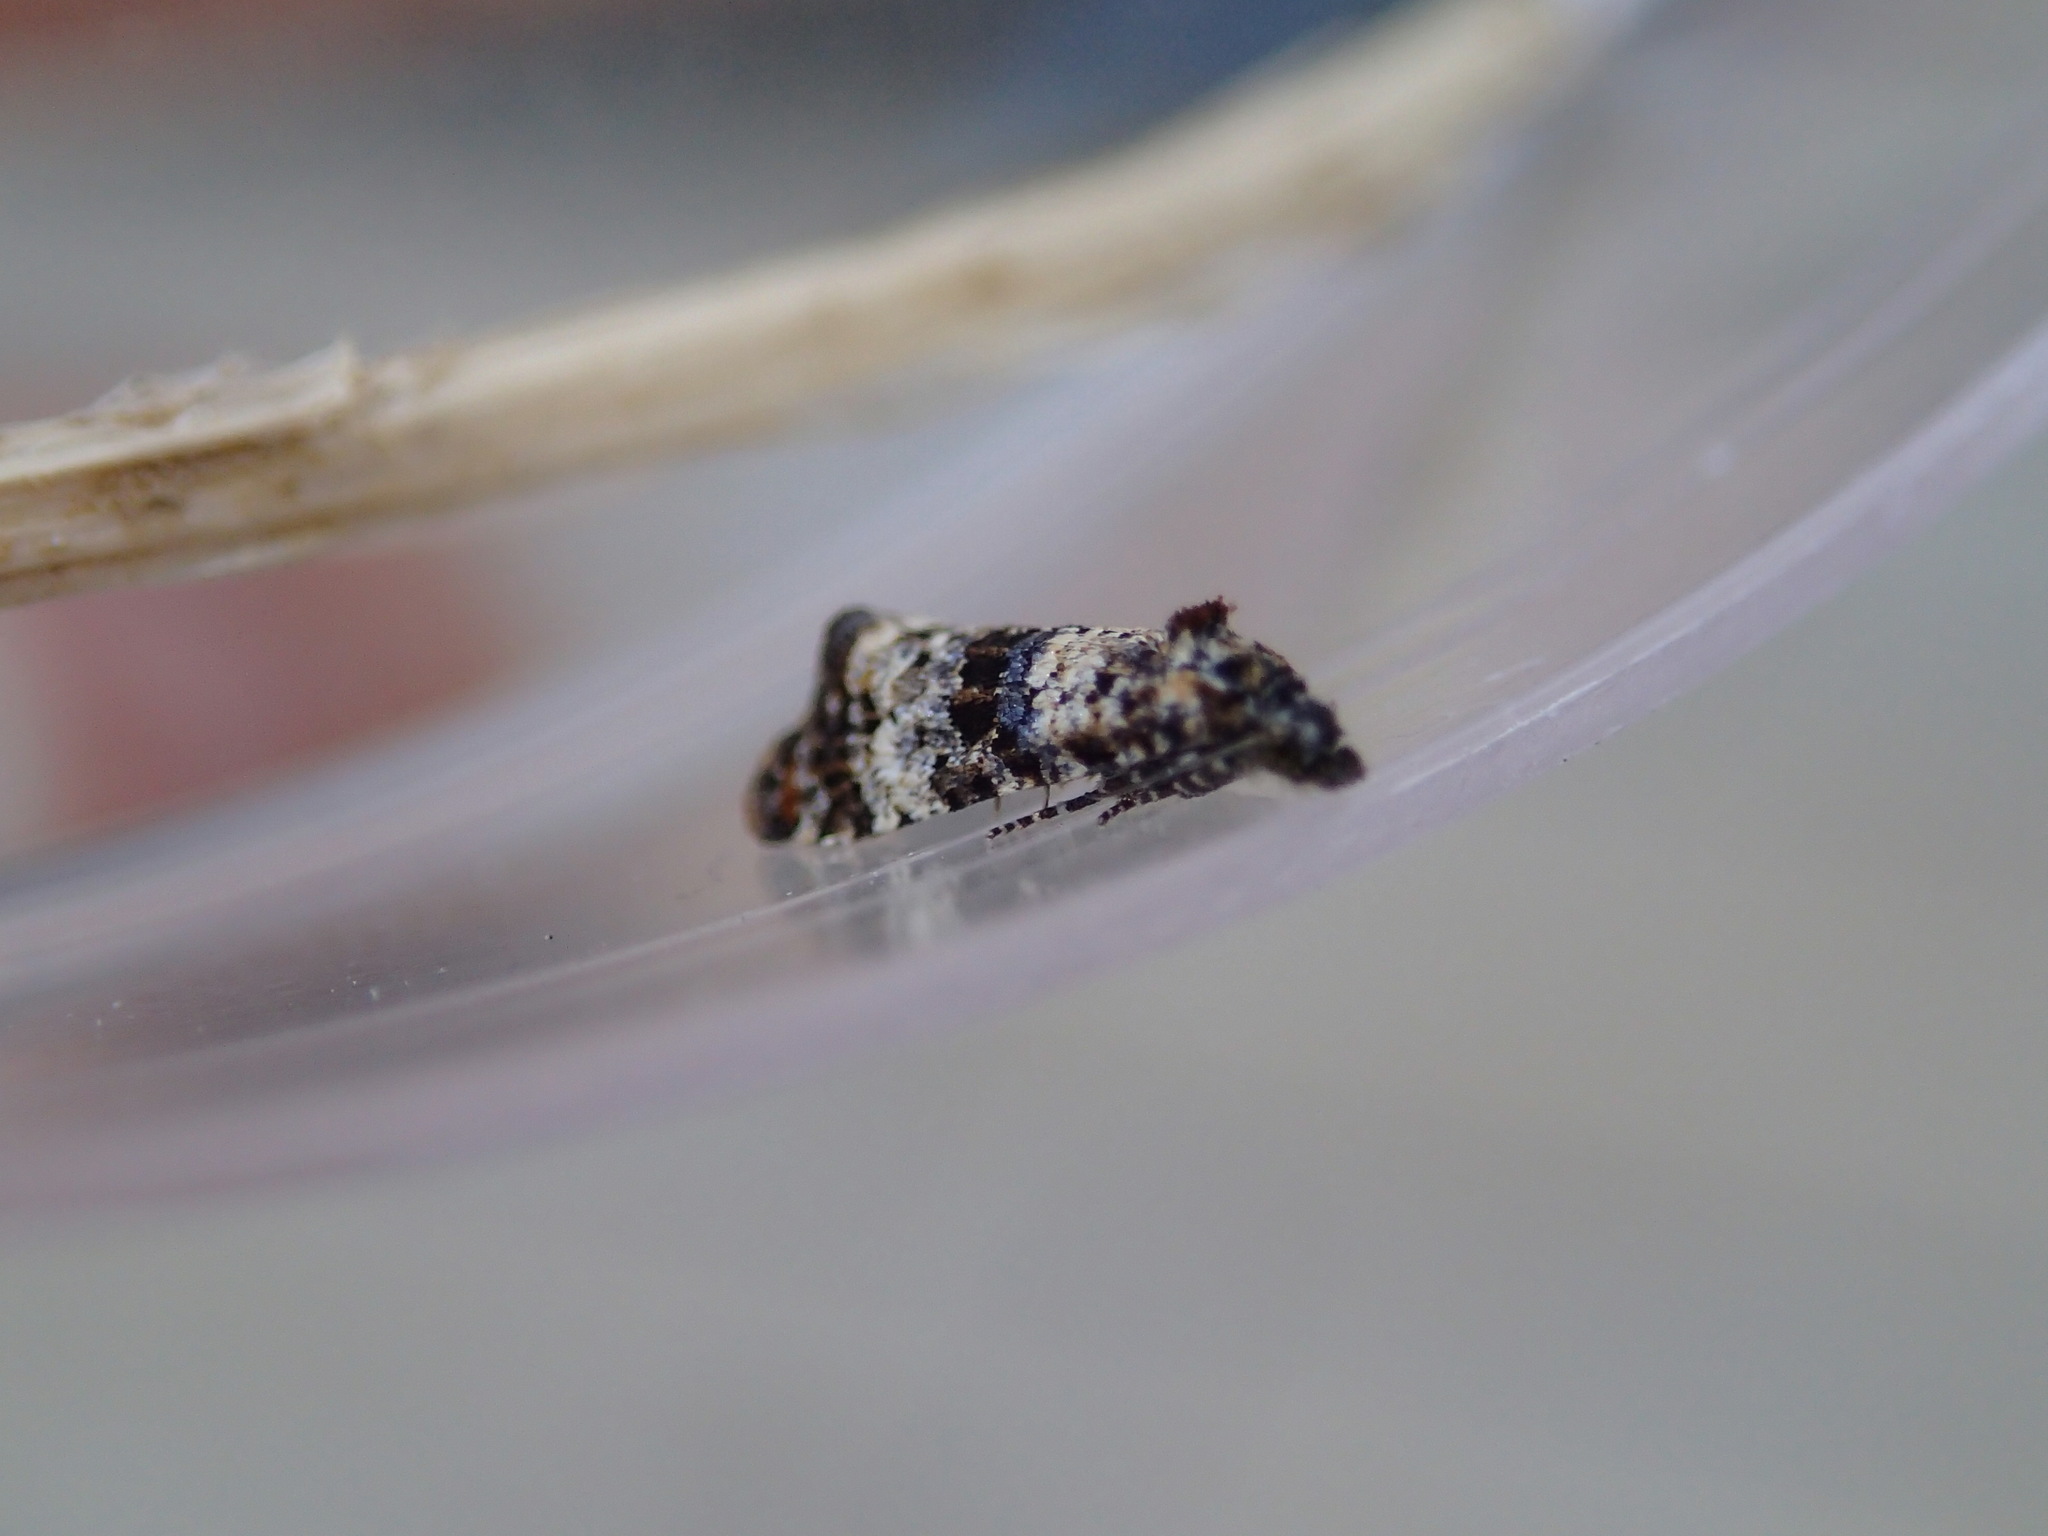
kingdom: Animalia
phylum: Arthropoda
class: Insecta
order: Lepidoptera
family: Tortricidae
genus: Hysterophora
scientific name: Hysterophora maculosana
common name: Bluebell conch
